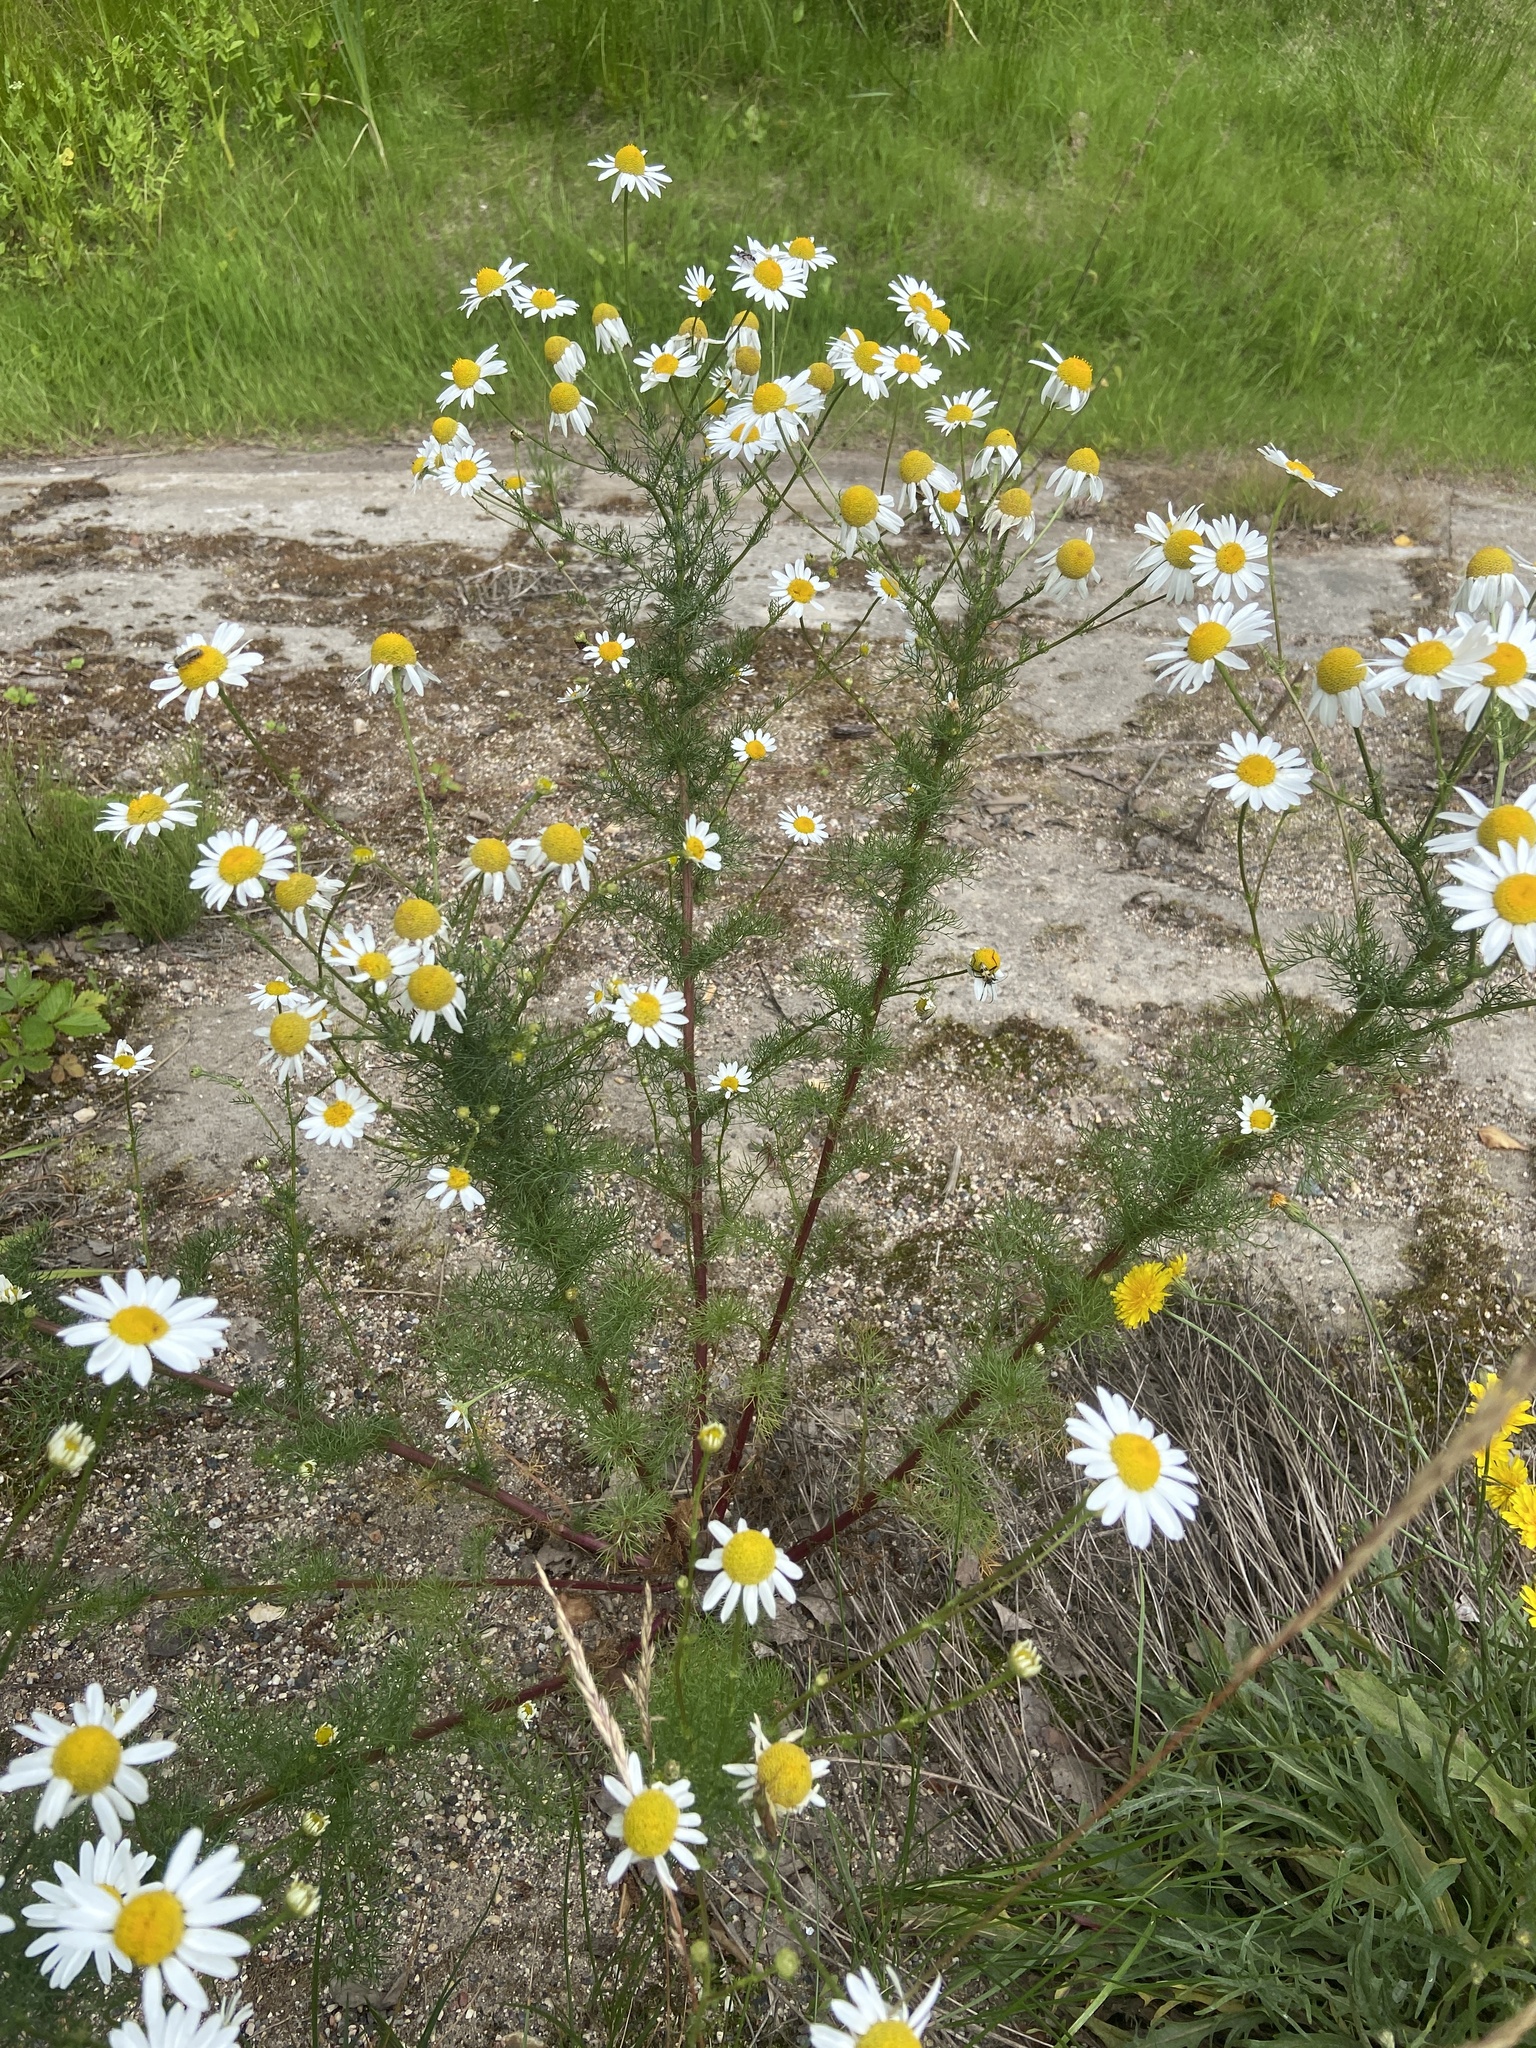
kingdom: Plantae
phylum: Tracheophyta
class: Magnoliopsida
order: Asterales
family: Asteraceae
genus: Tripleurospermum
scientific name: Tripleurospermum inodorum
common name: Scentless mayweed
